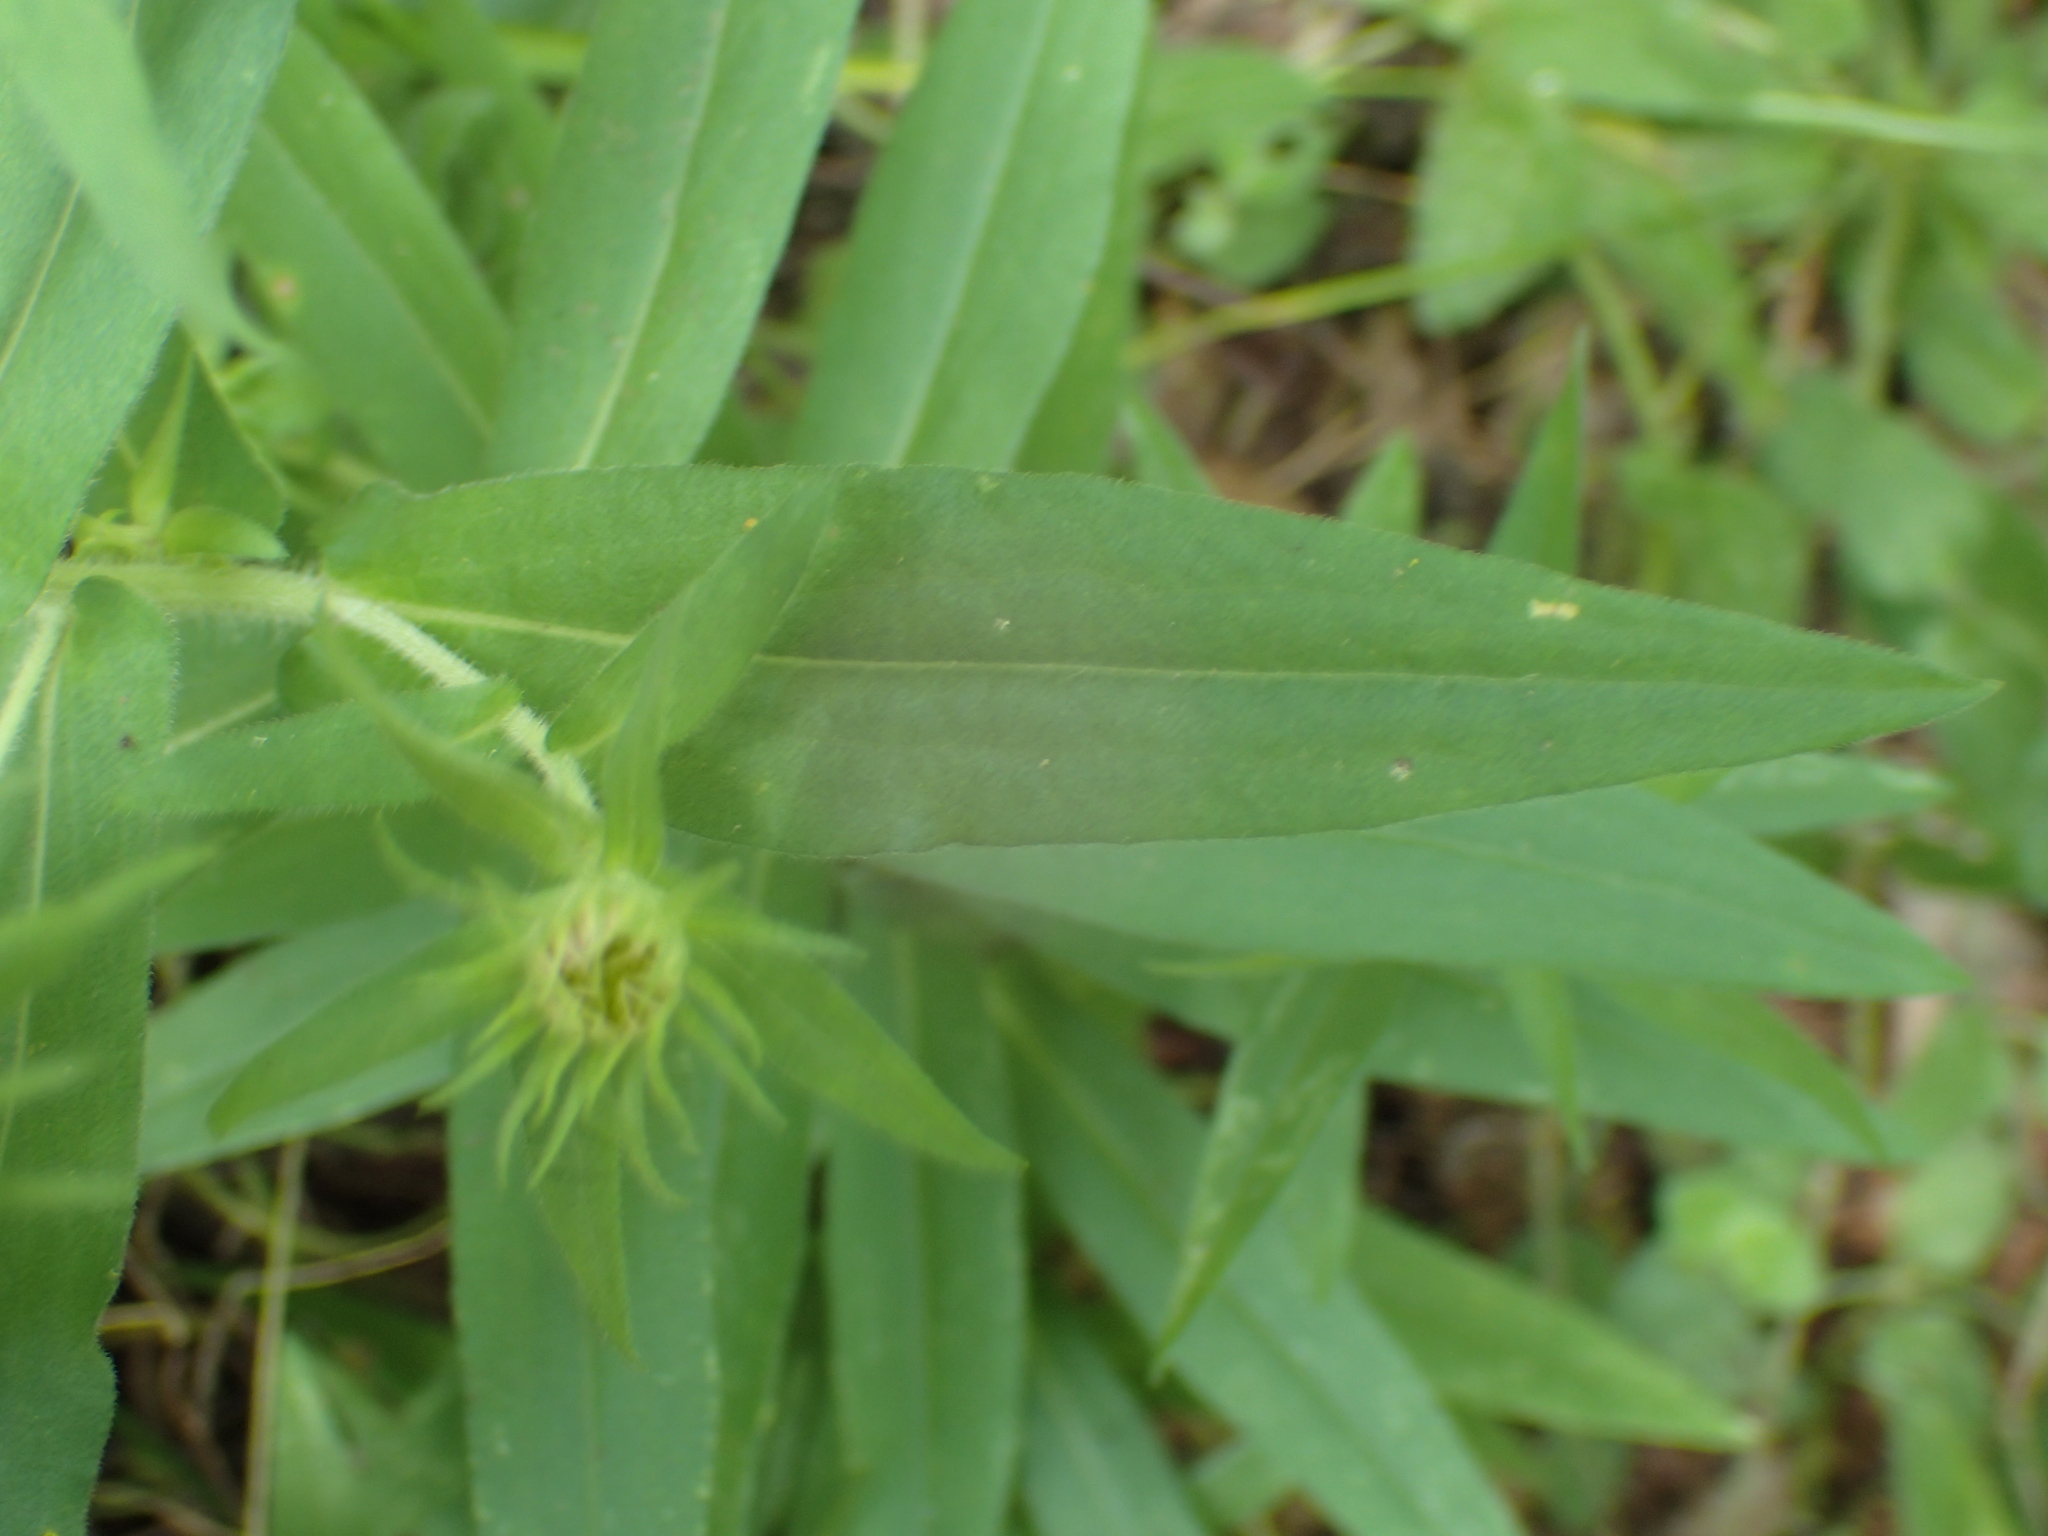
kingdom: Plantae
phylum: Tracheophyta
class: Magnoliopsida
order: Asterales
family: Asteraceae
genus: Symphyotrichum
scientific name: Symphyotrichum novae-angliae
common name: Michaelmas daisy
